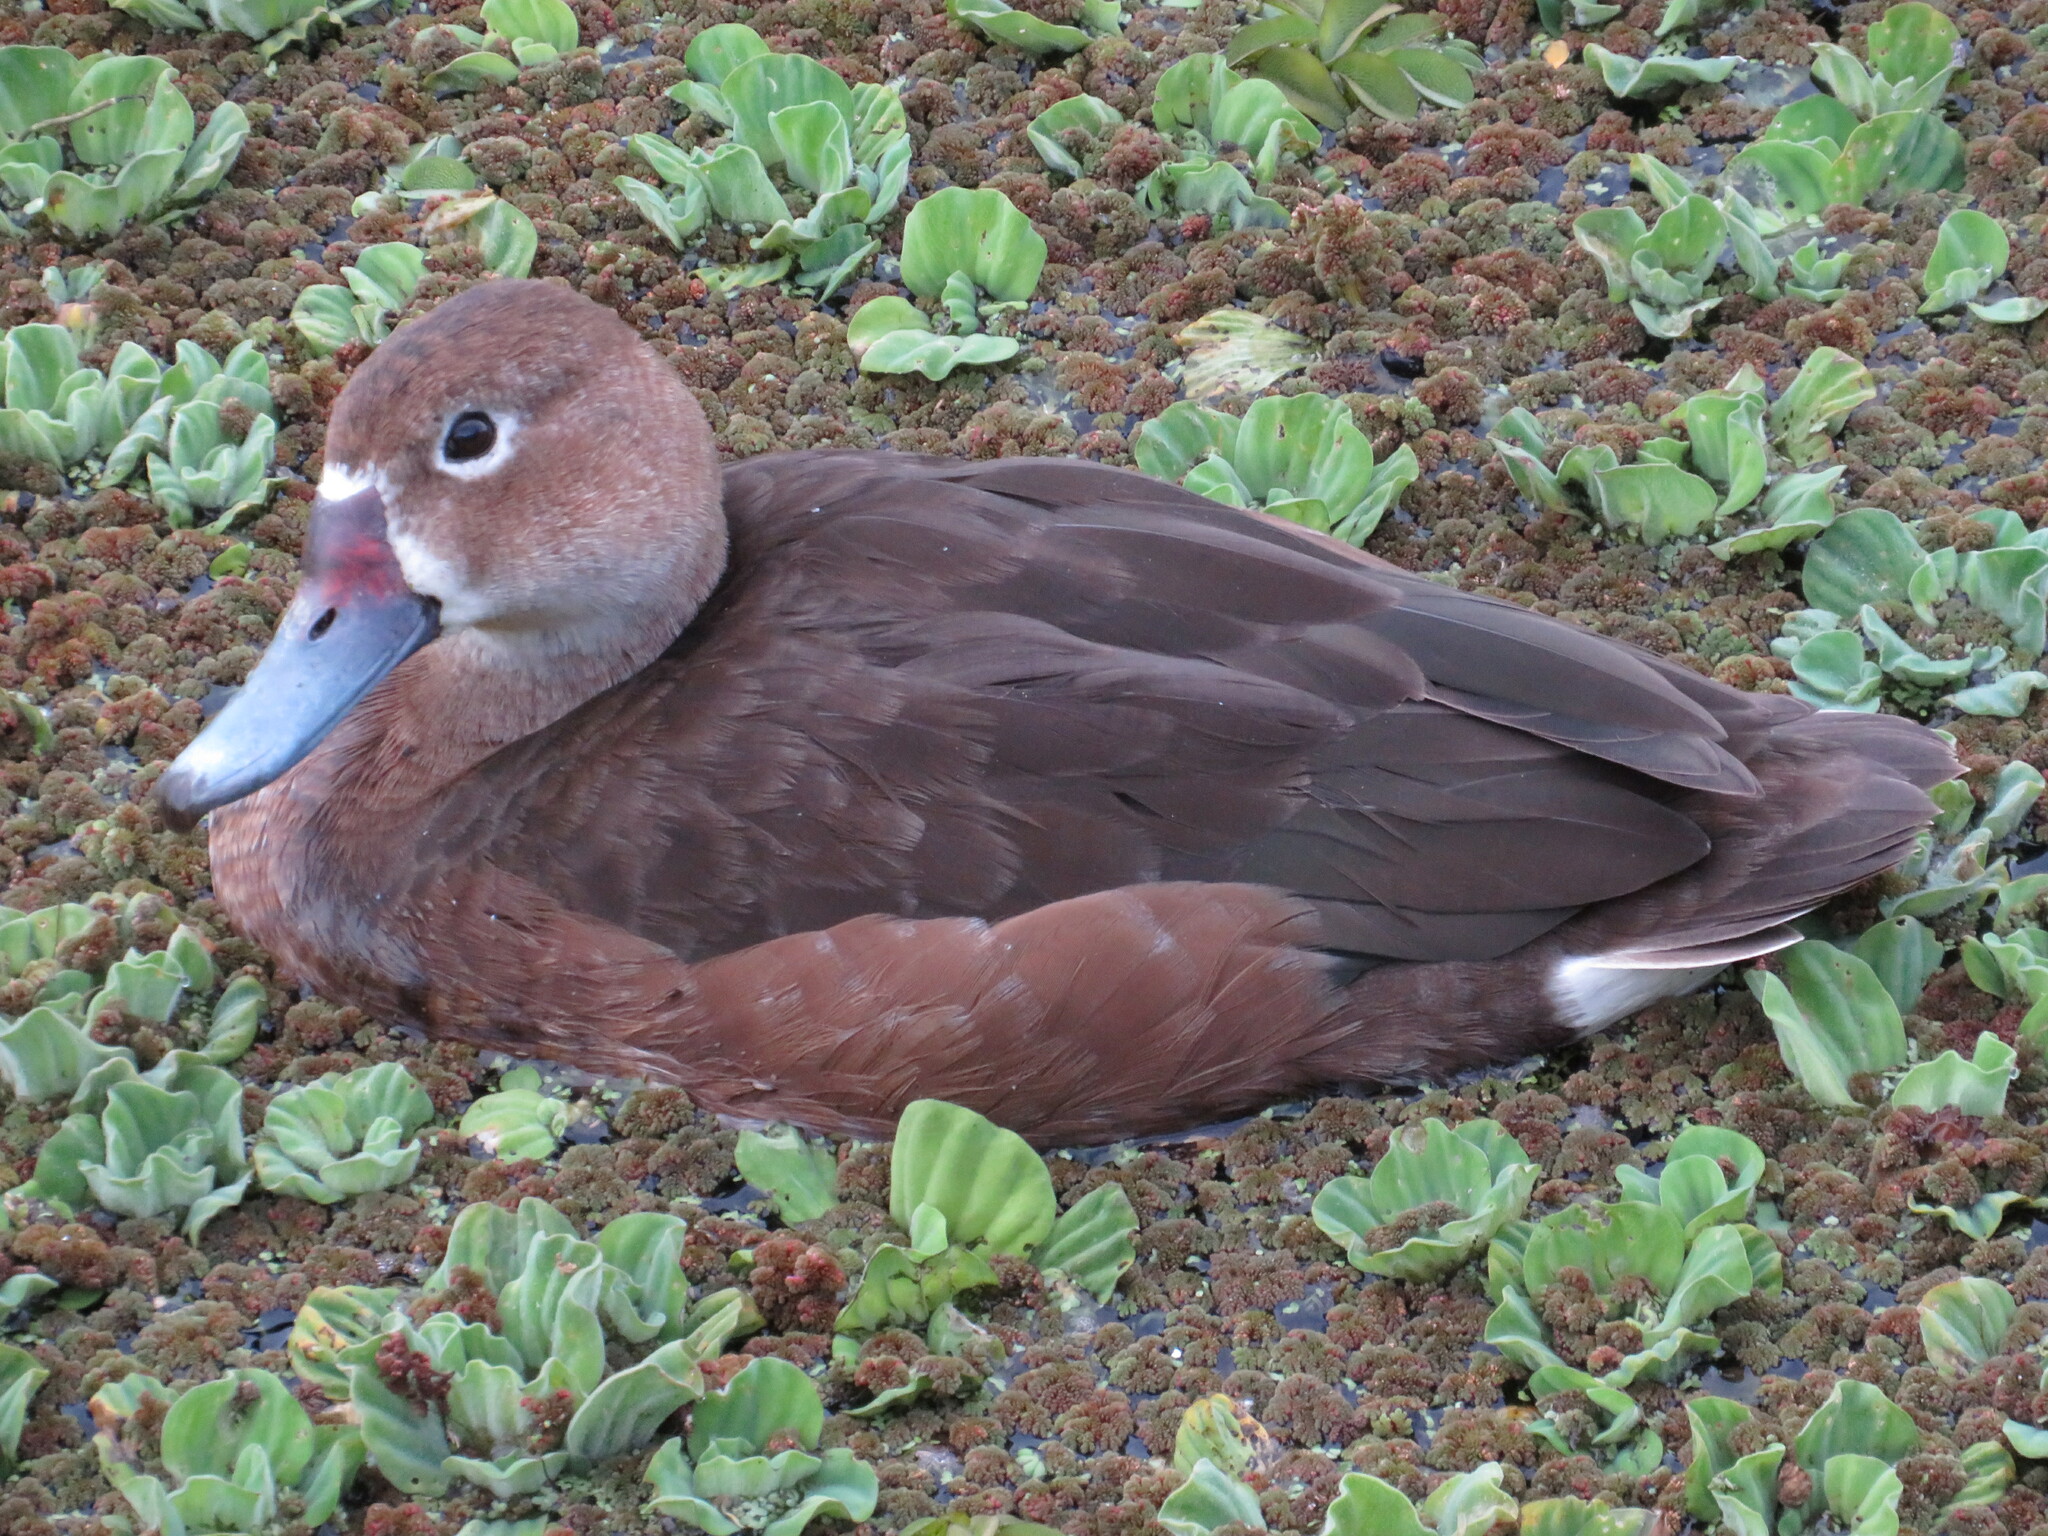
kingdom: Animalia
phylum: Chordata
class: Aves
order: Anseriformes
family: Anatidae
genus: Netta
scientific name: Netta peposaca
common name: Rosy-billed pochard
